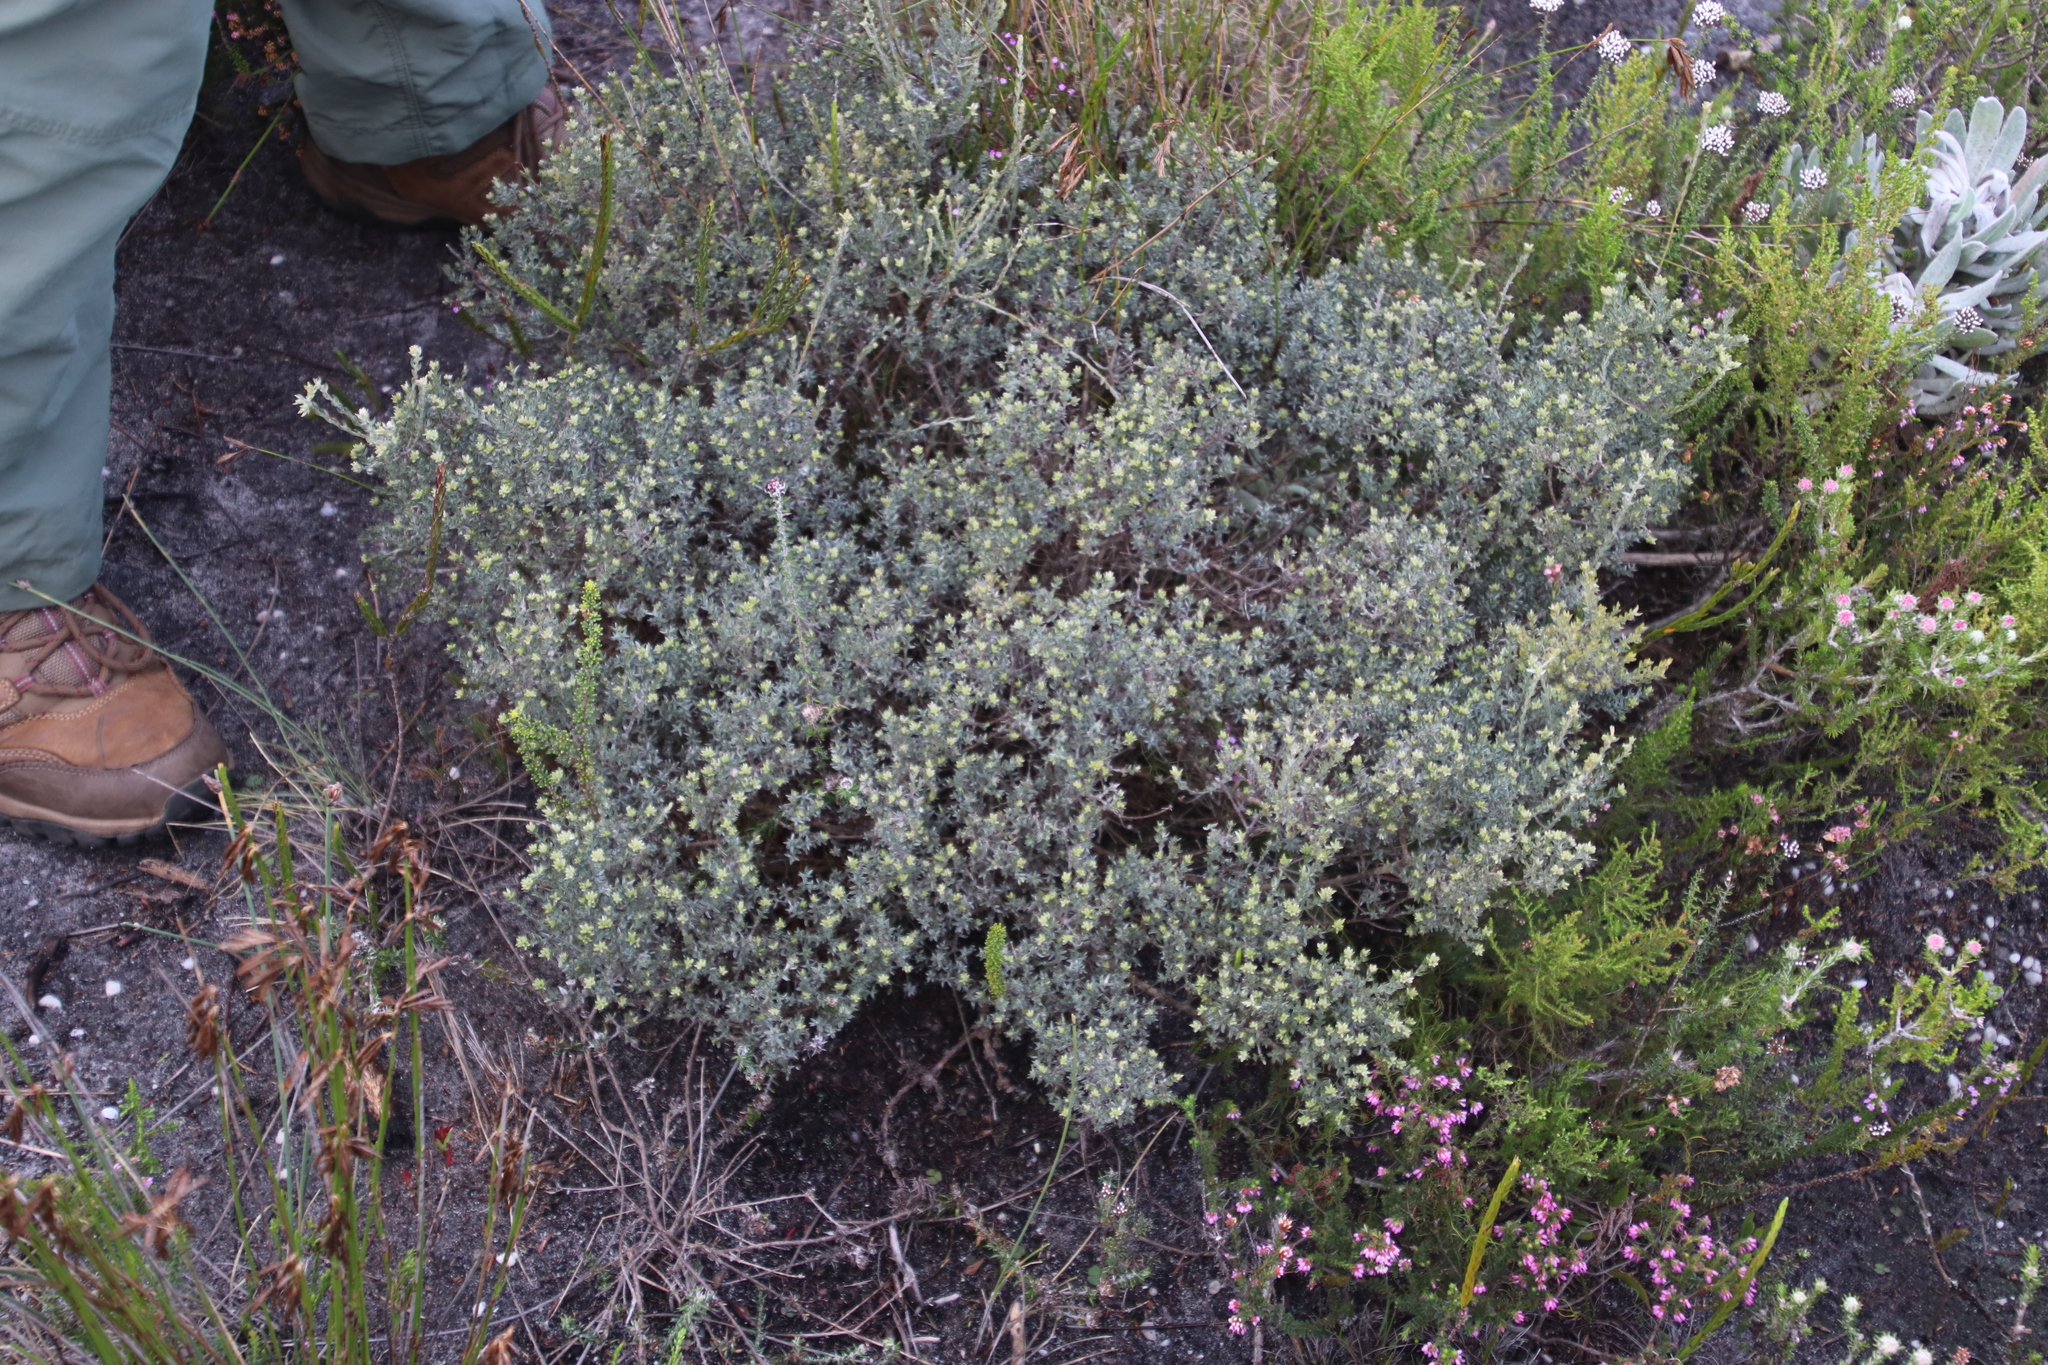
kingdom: Plantae
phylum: Tracheophyta
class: Magnoliopsida
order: Fabales
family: Fabaceae
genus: Amphithalea
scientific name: Amphithalea ericifolia
